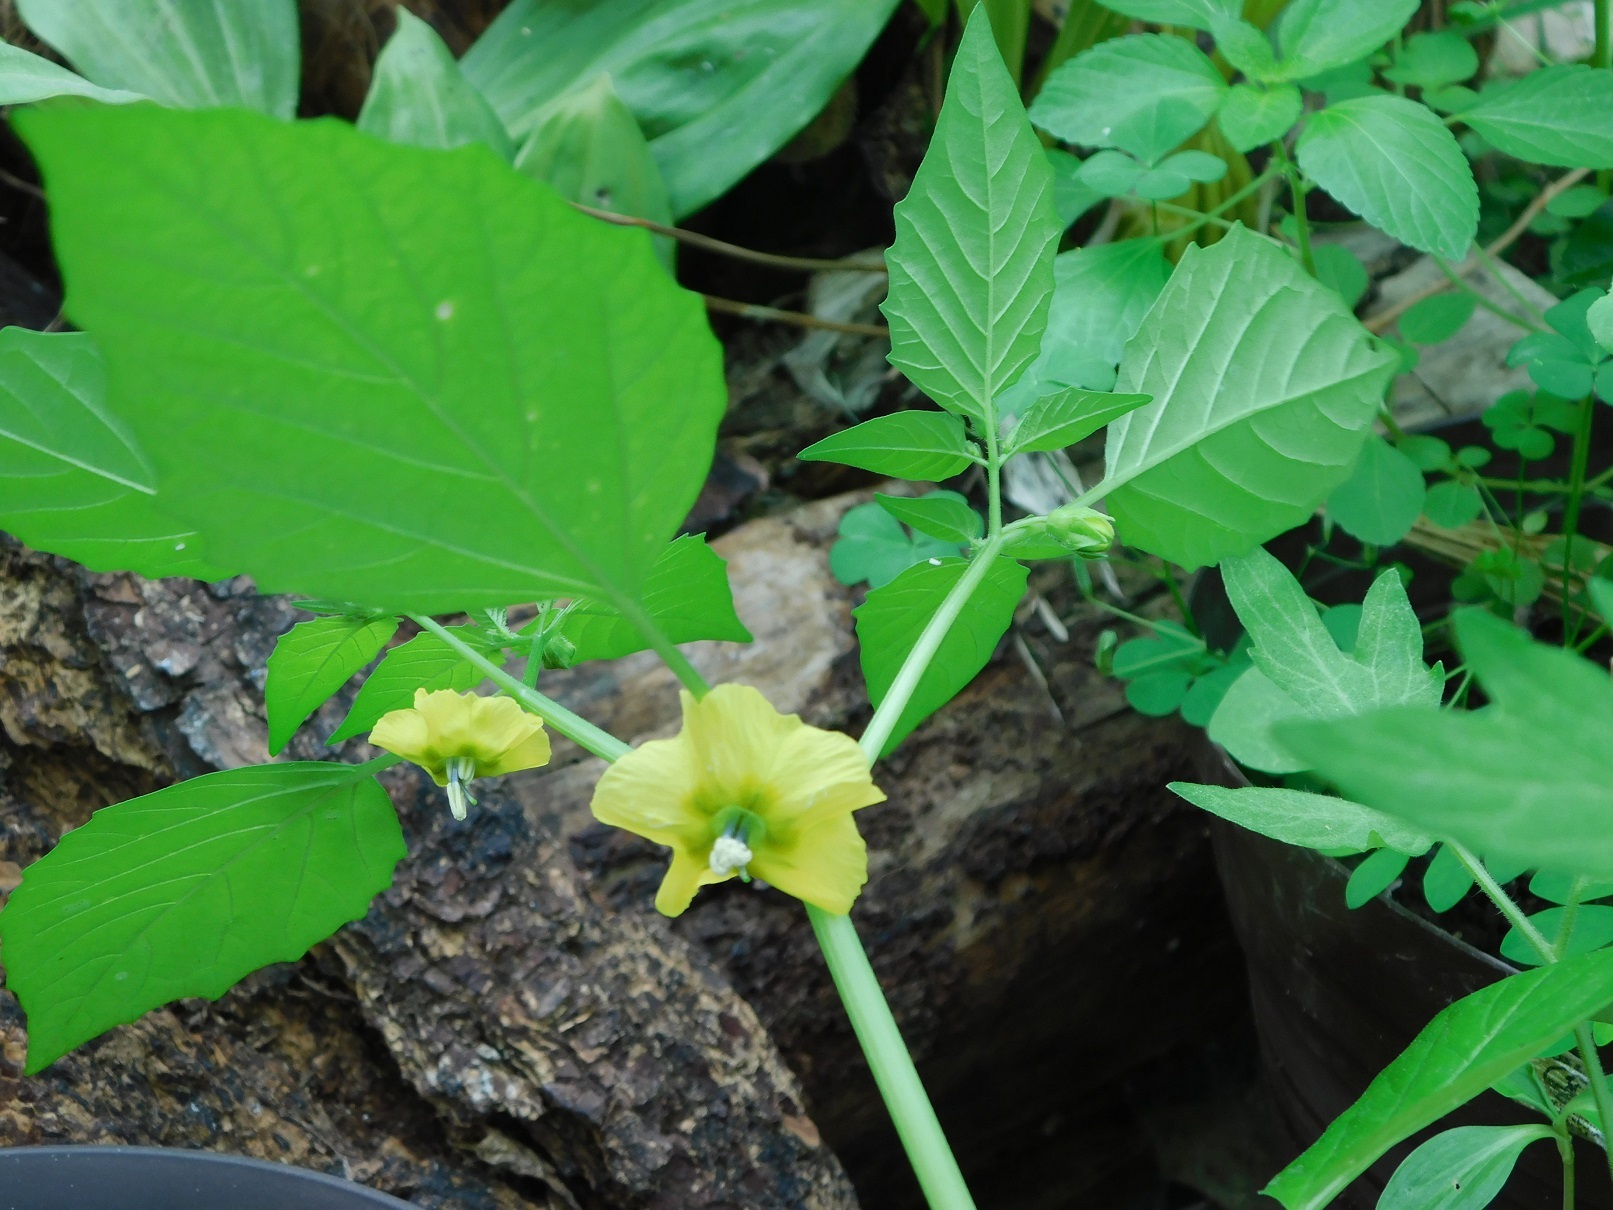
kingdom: Plantae
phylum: Tracheophyta
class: Magnoliopsida
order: Solanales
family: Solanaceae
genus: Physalis
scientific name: Physalis philadelphica
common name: Husk-tomato
